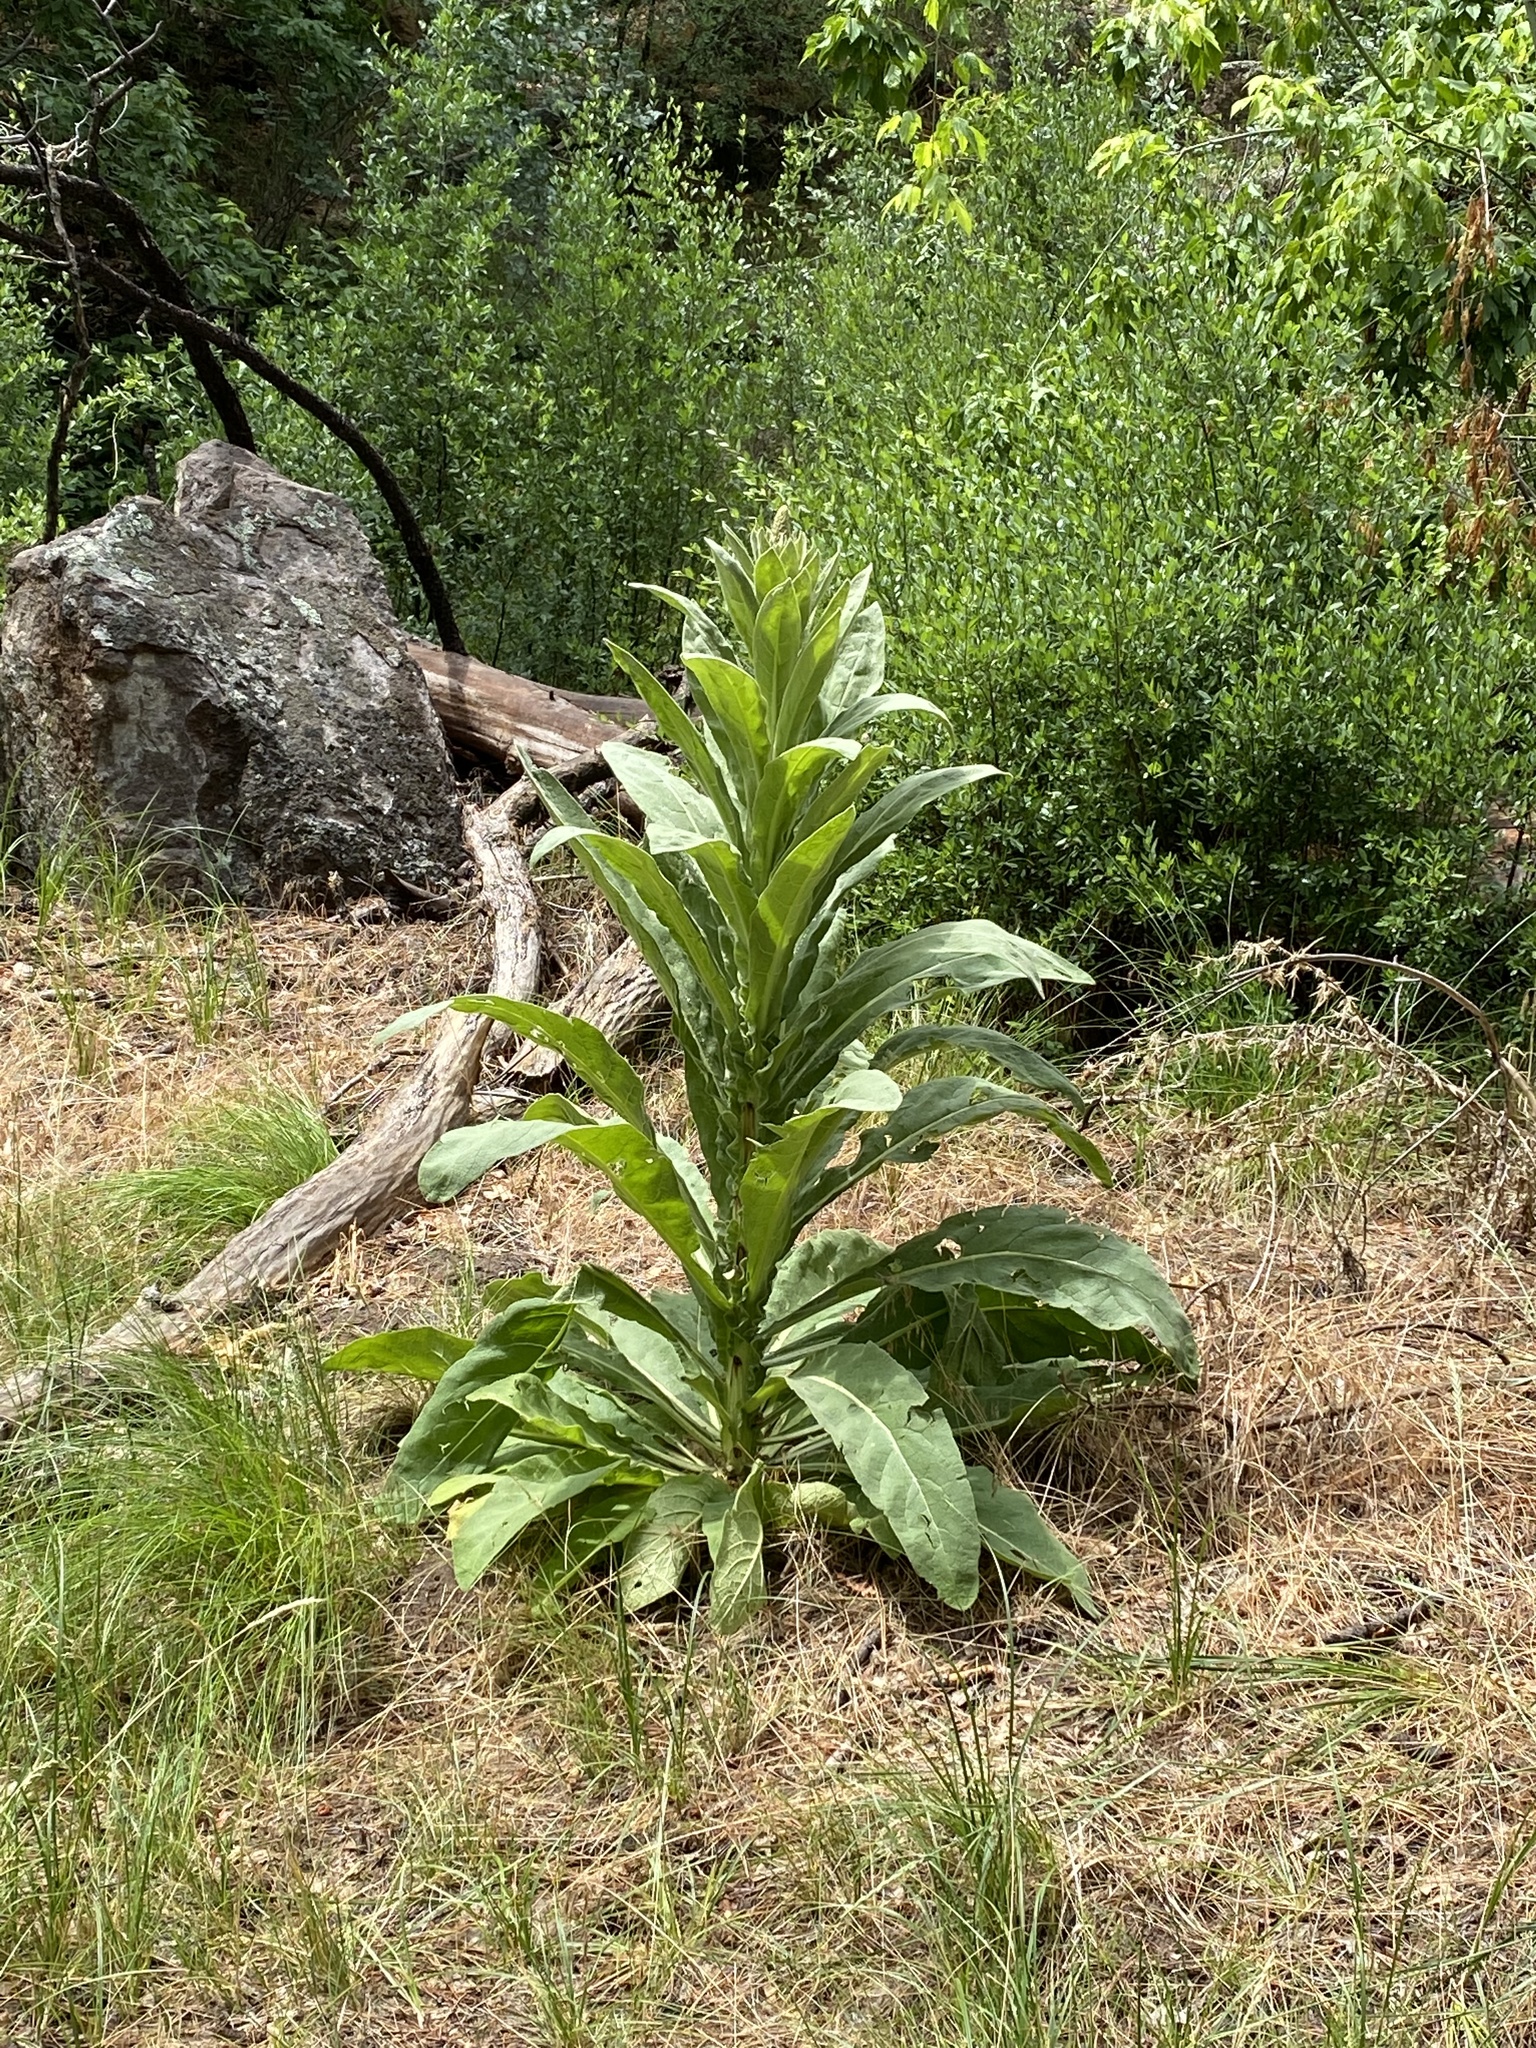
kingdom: Plantae
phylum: Tracheophyta
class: Magnoliopsida
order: Lamiales
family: Scrophulariaceae
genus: Verbascum
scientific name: Verbascum thapsus
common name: Common mullein
